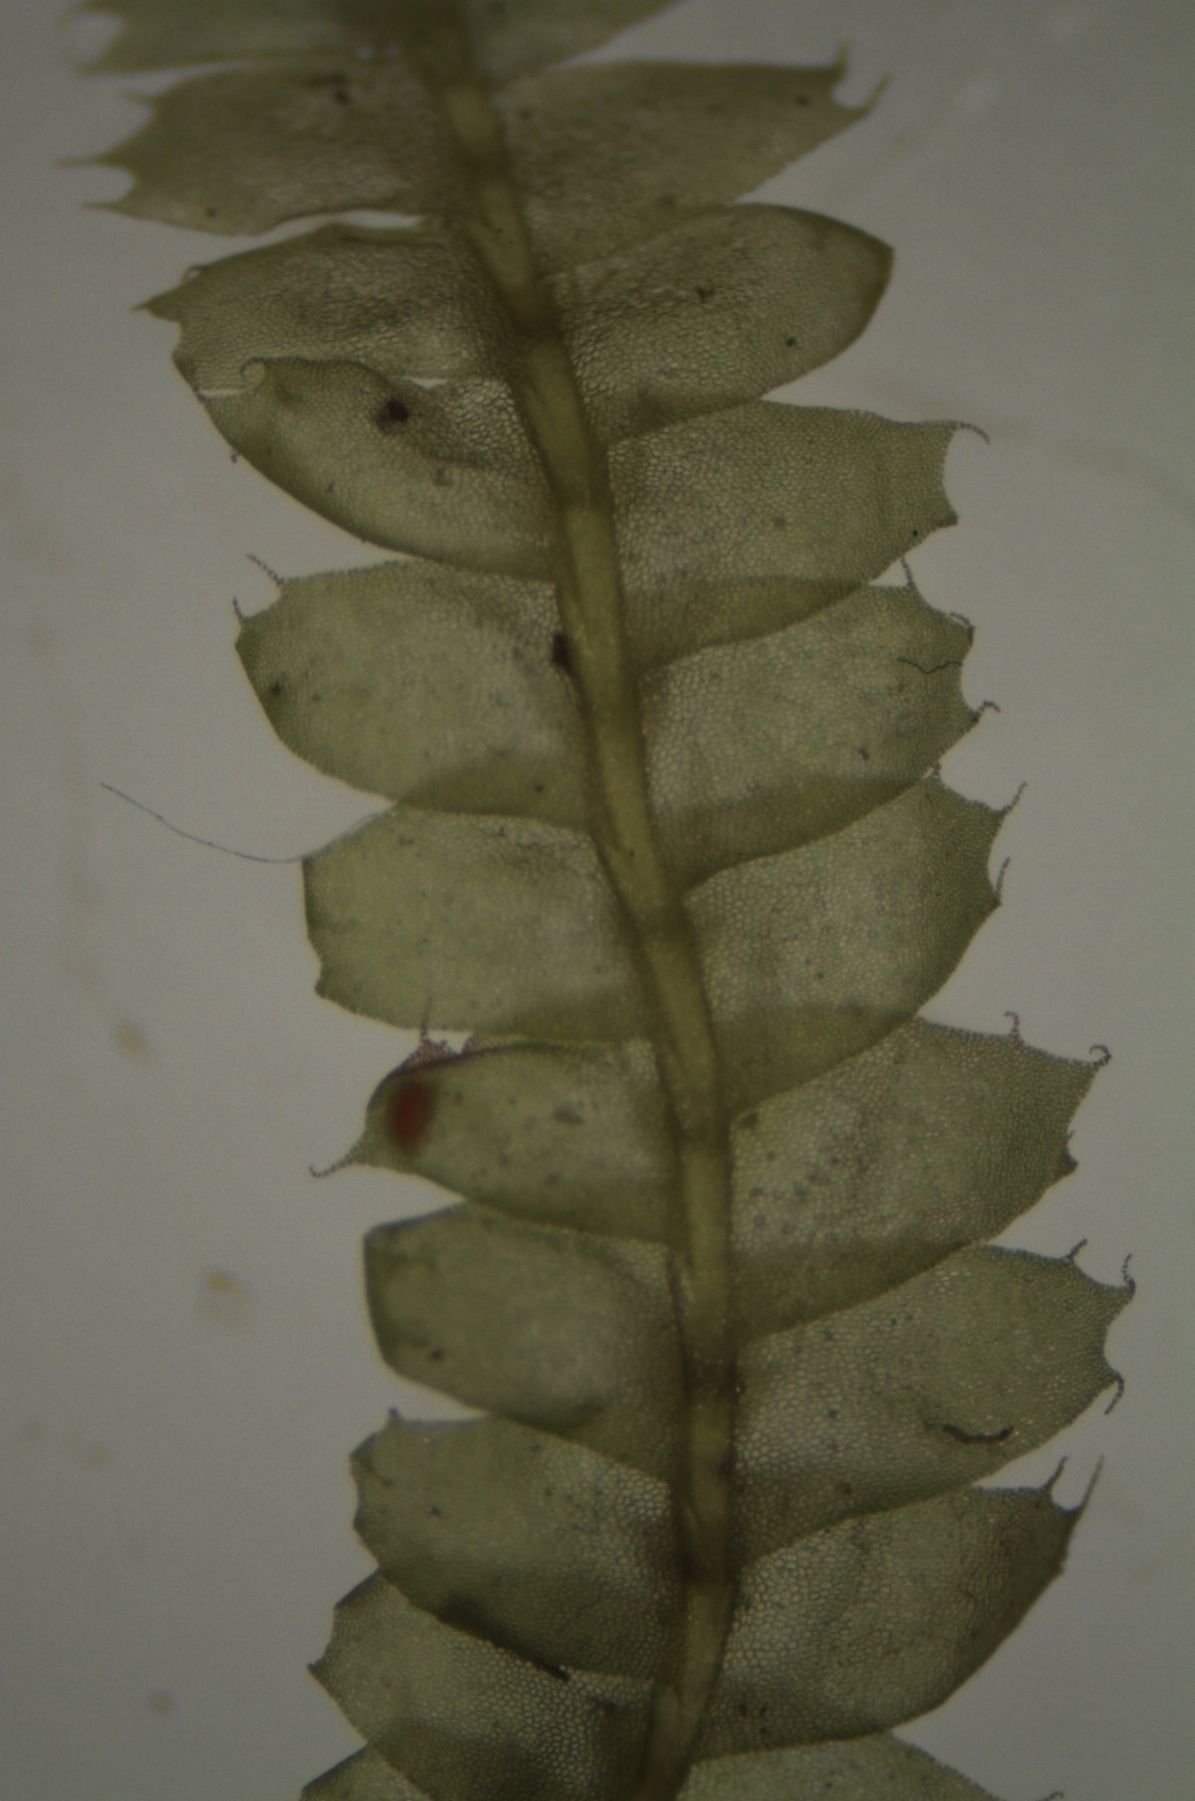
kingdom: Plantae
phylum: Marchantiophyta
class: Jungermanniopsida
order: Jungermanniales
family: Lophocoleaceae
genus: Heteroscyphus
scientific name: Heteroscyphus triacanthus
